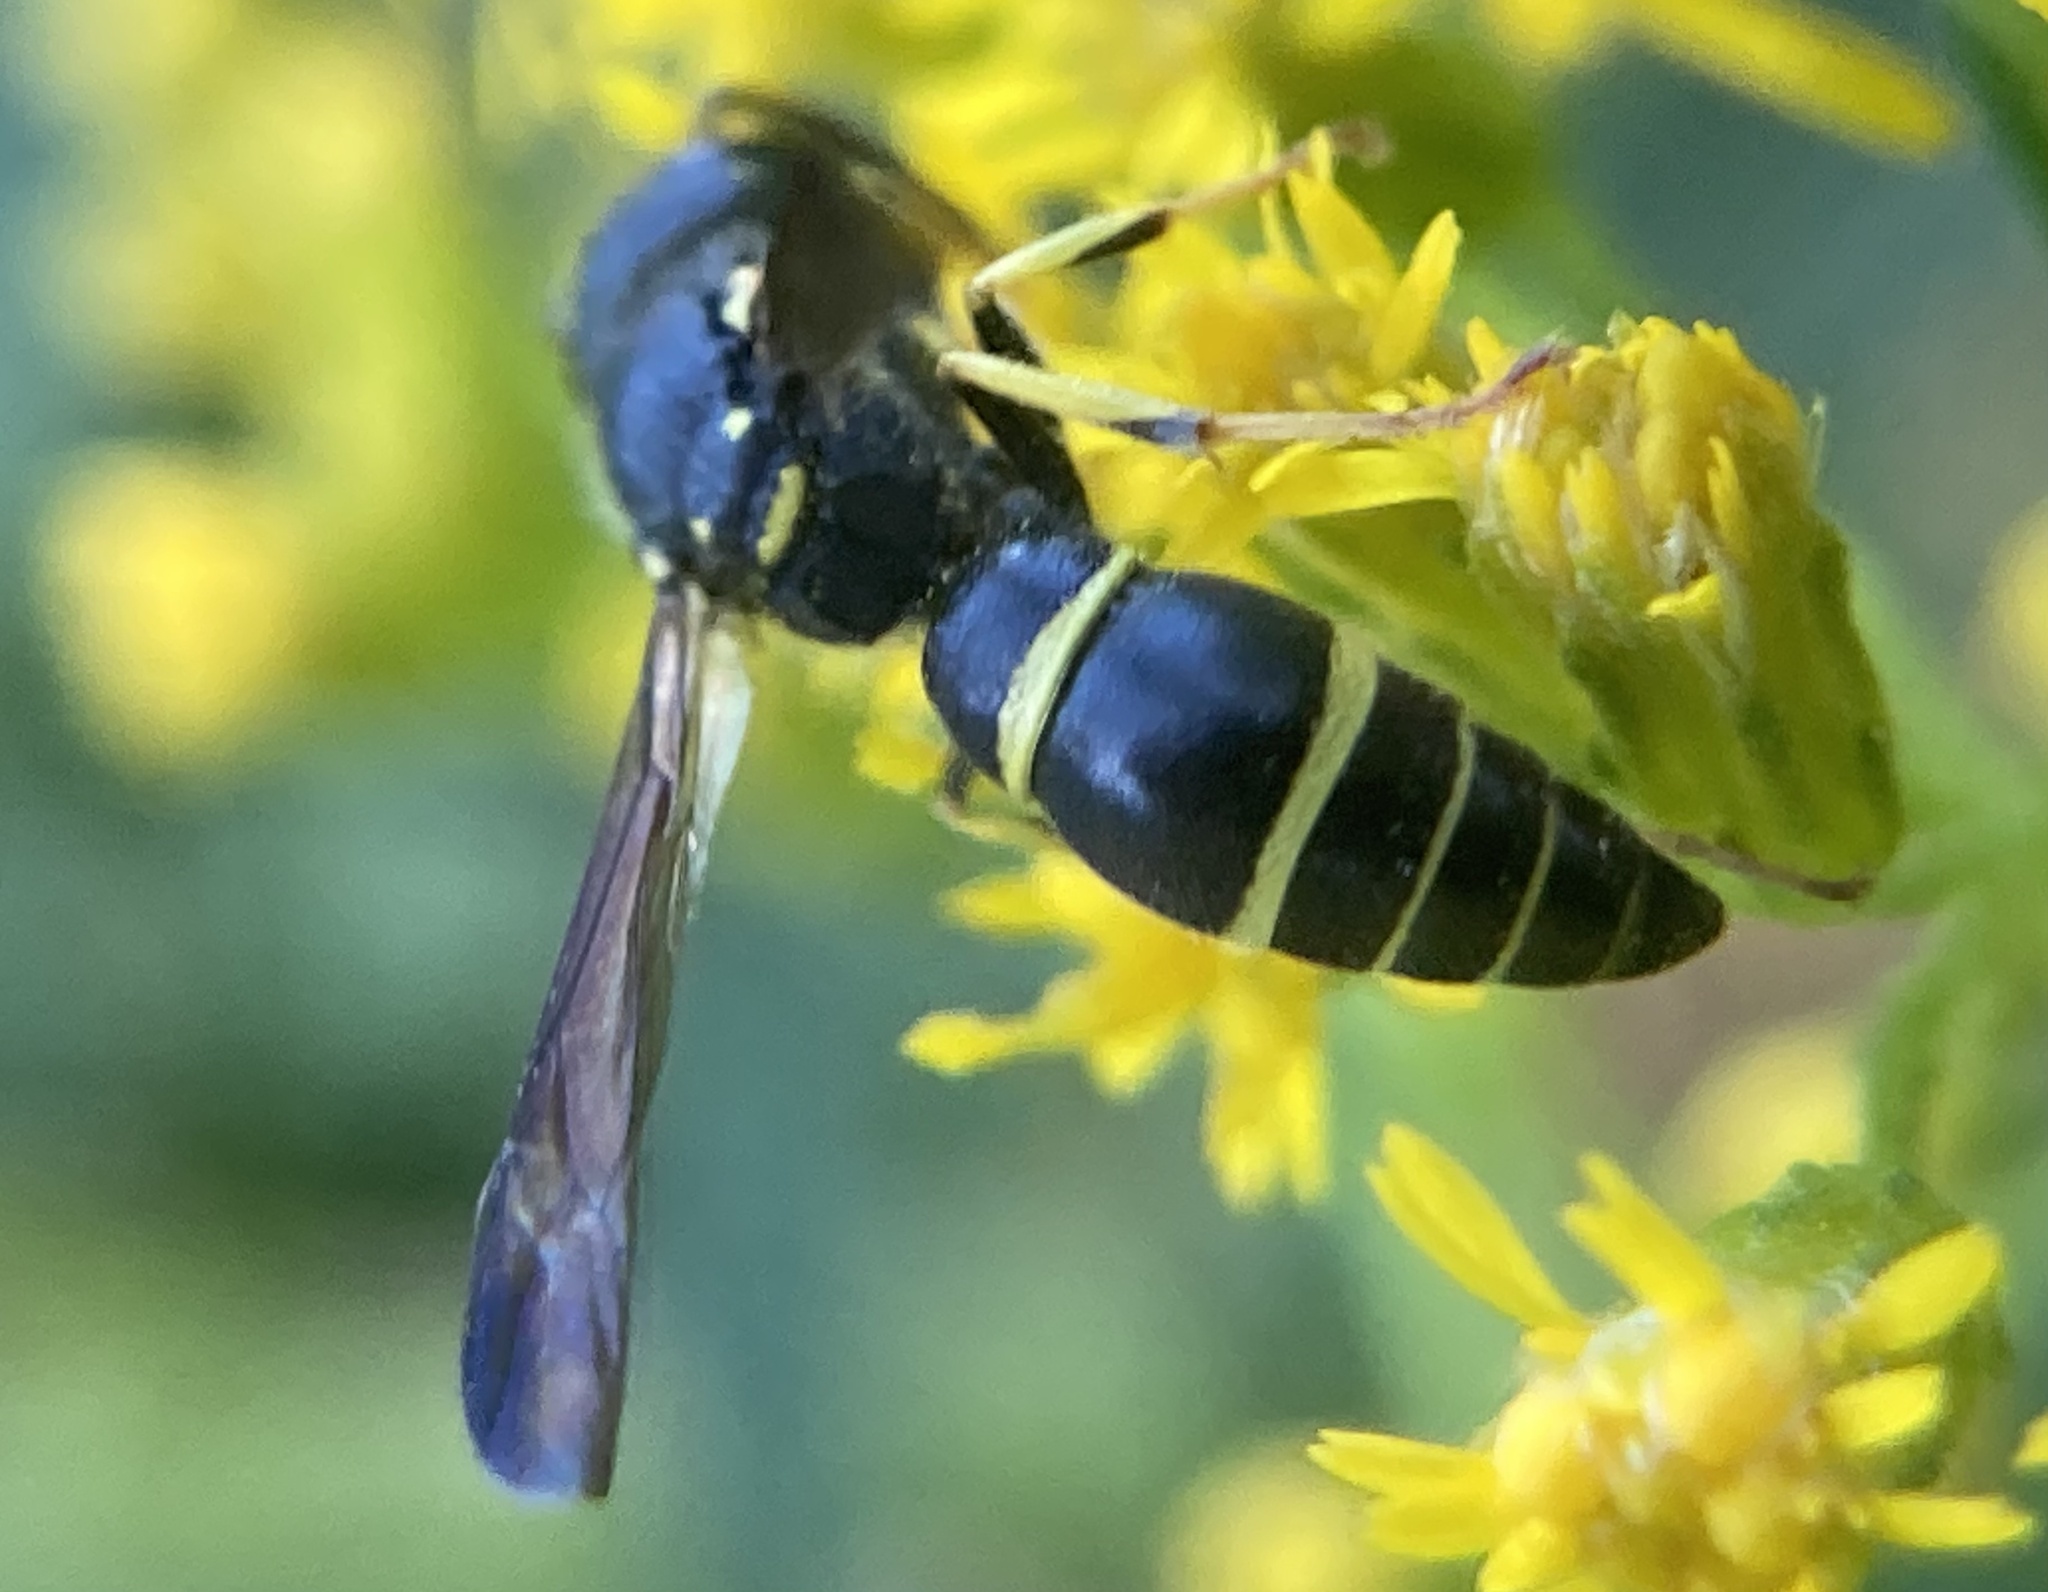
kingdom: Animalia
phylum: Arthropoda
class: Insecta
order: Hymenoptera
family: Vespidae
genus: Ancistrocerus
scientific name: Ancistrocerus adiabatus
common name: Bramble mason wasp
